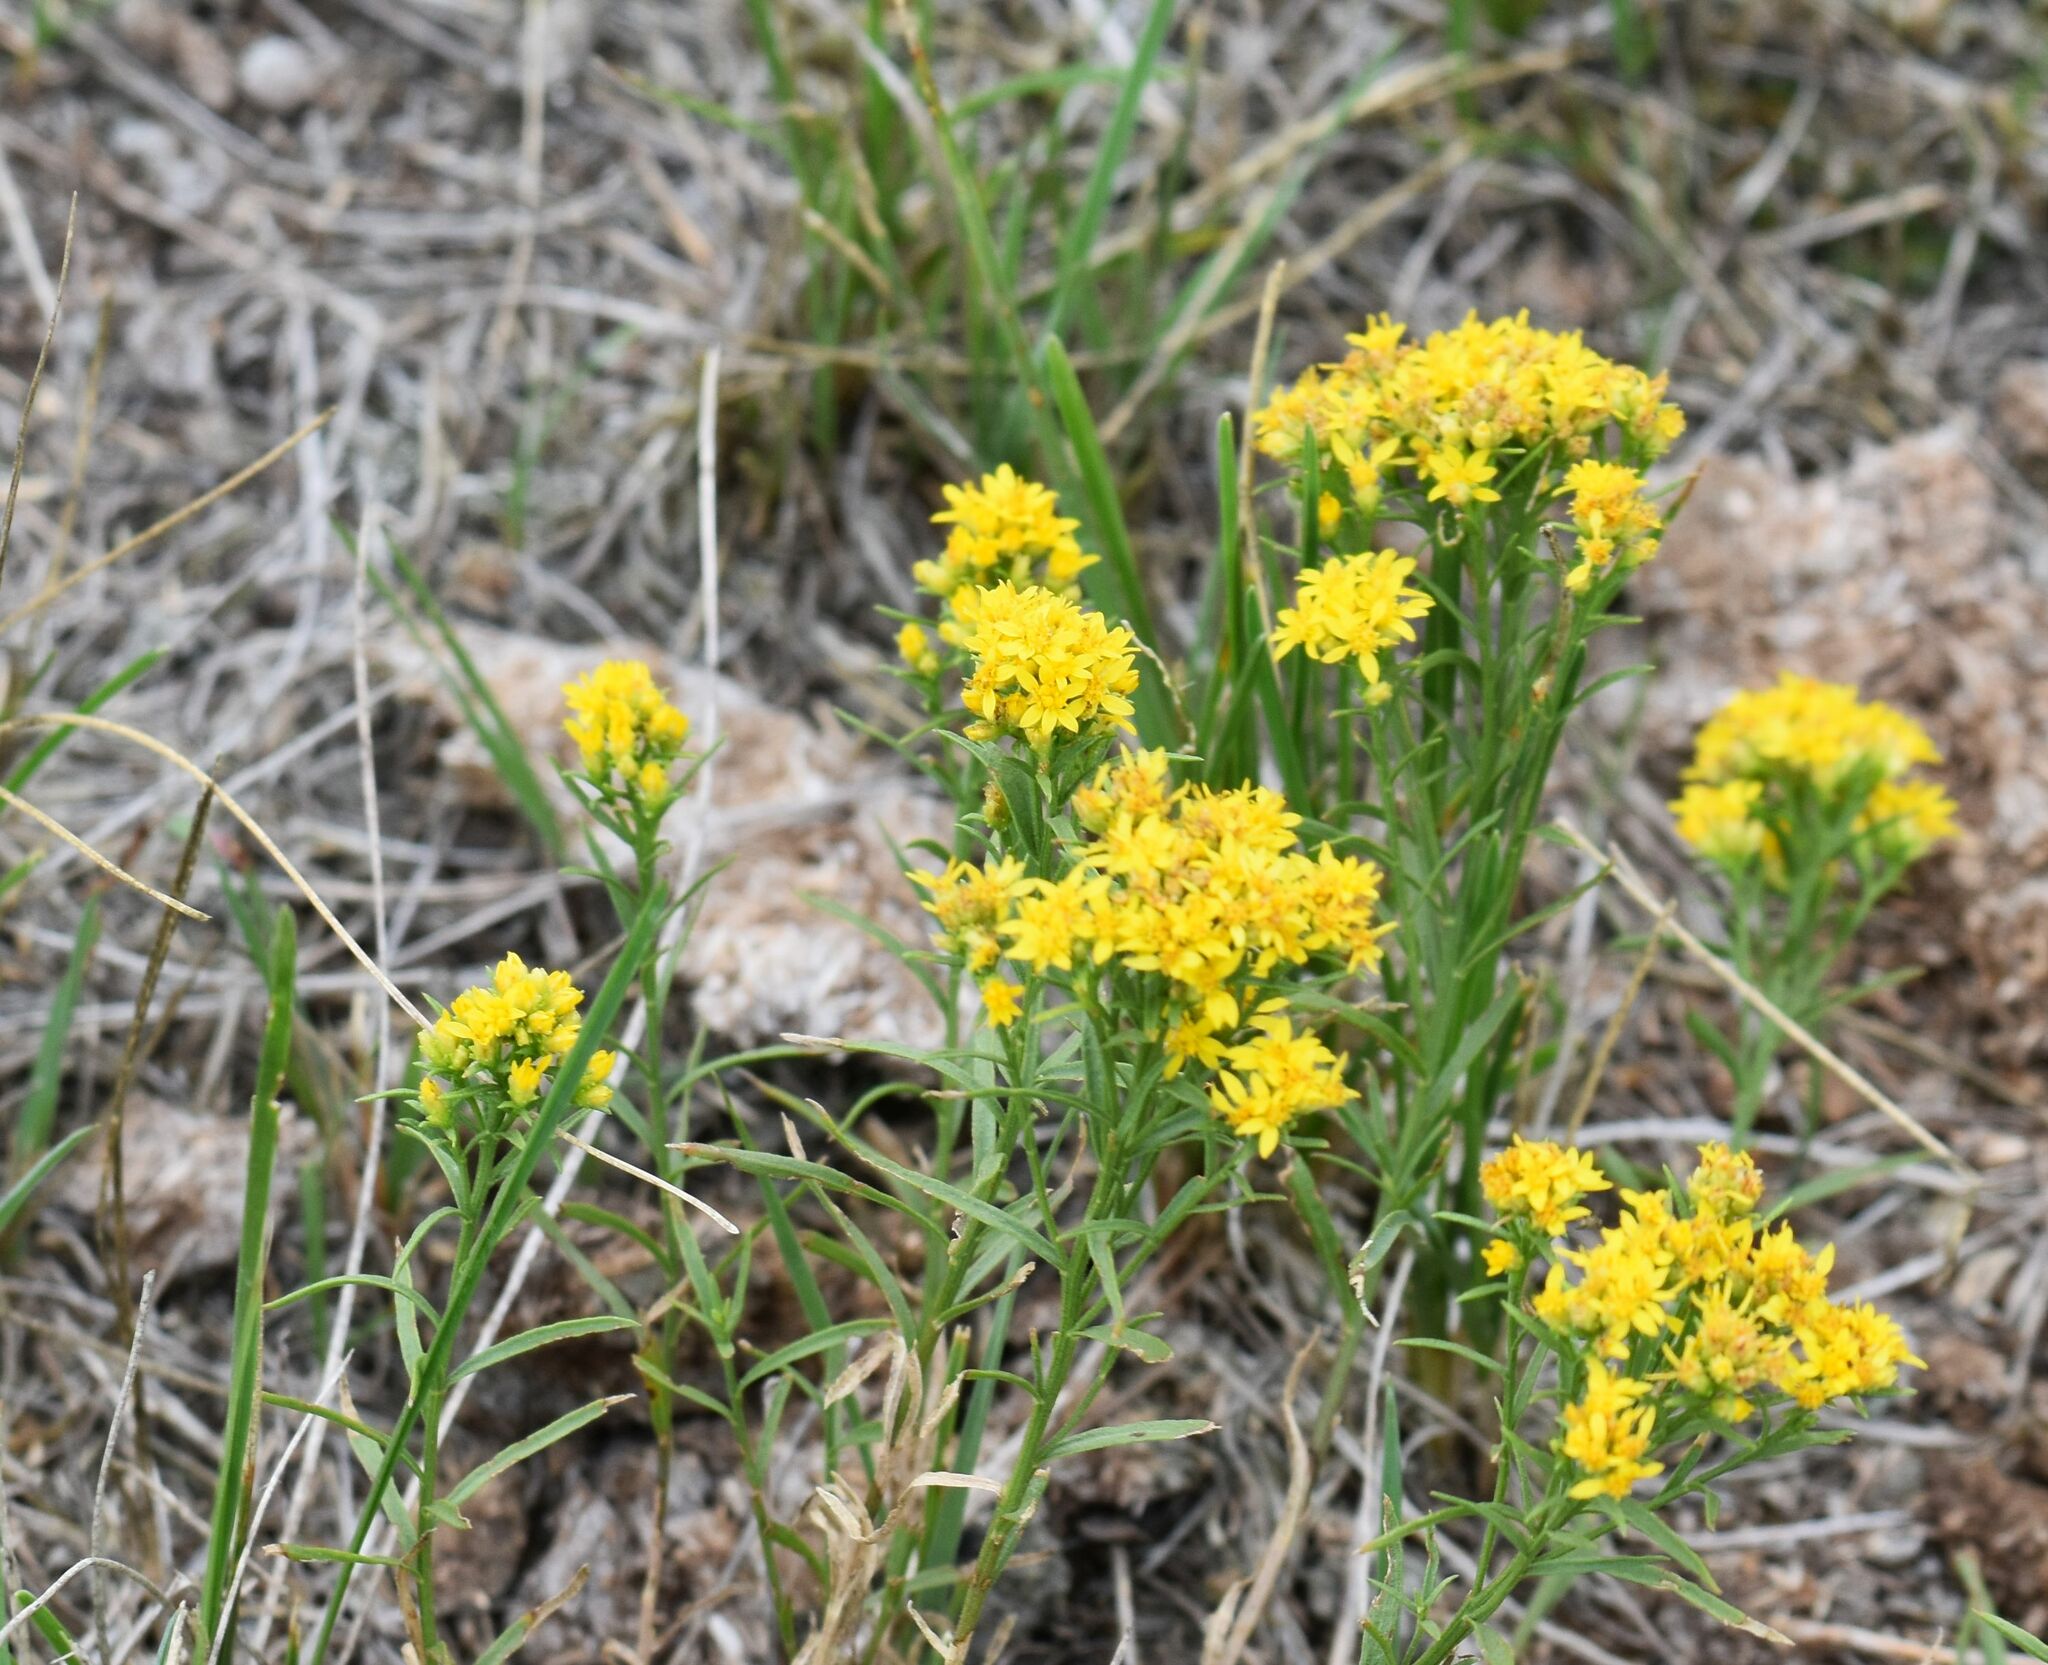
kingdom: Plantae
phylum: Tracheophyta
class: Magnoliopsida
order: Asterales
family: Asteraceae
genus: Gutierrezia
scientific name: Gutierrezia sarothrae
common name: Broom snakeweed
